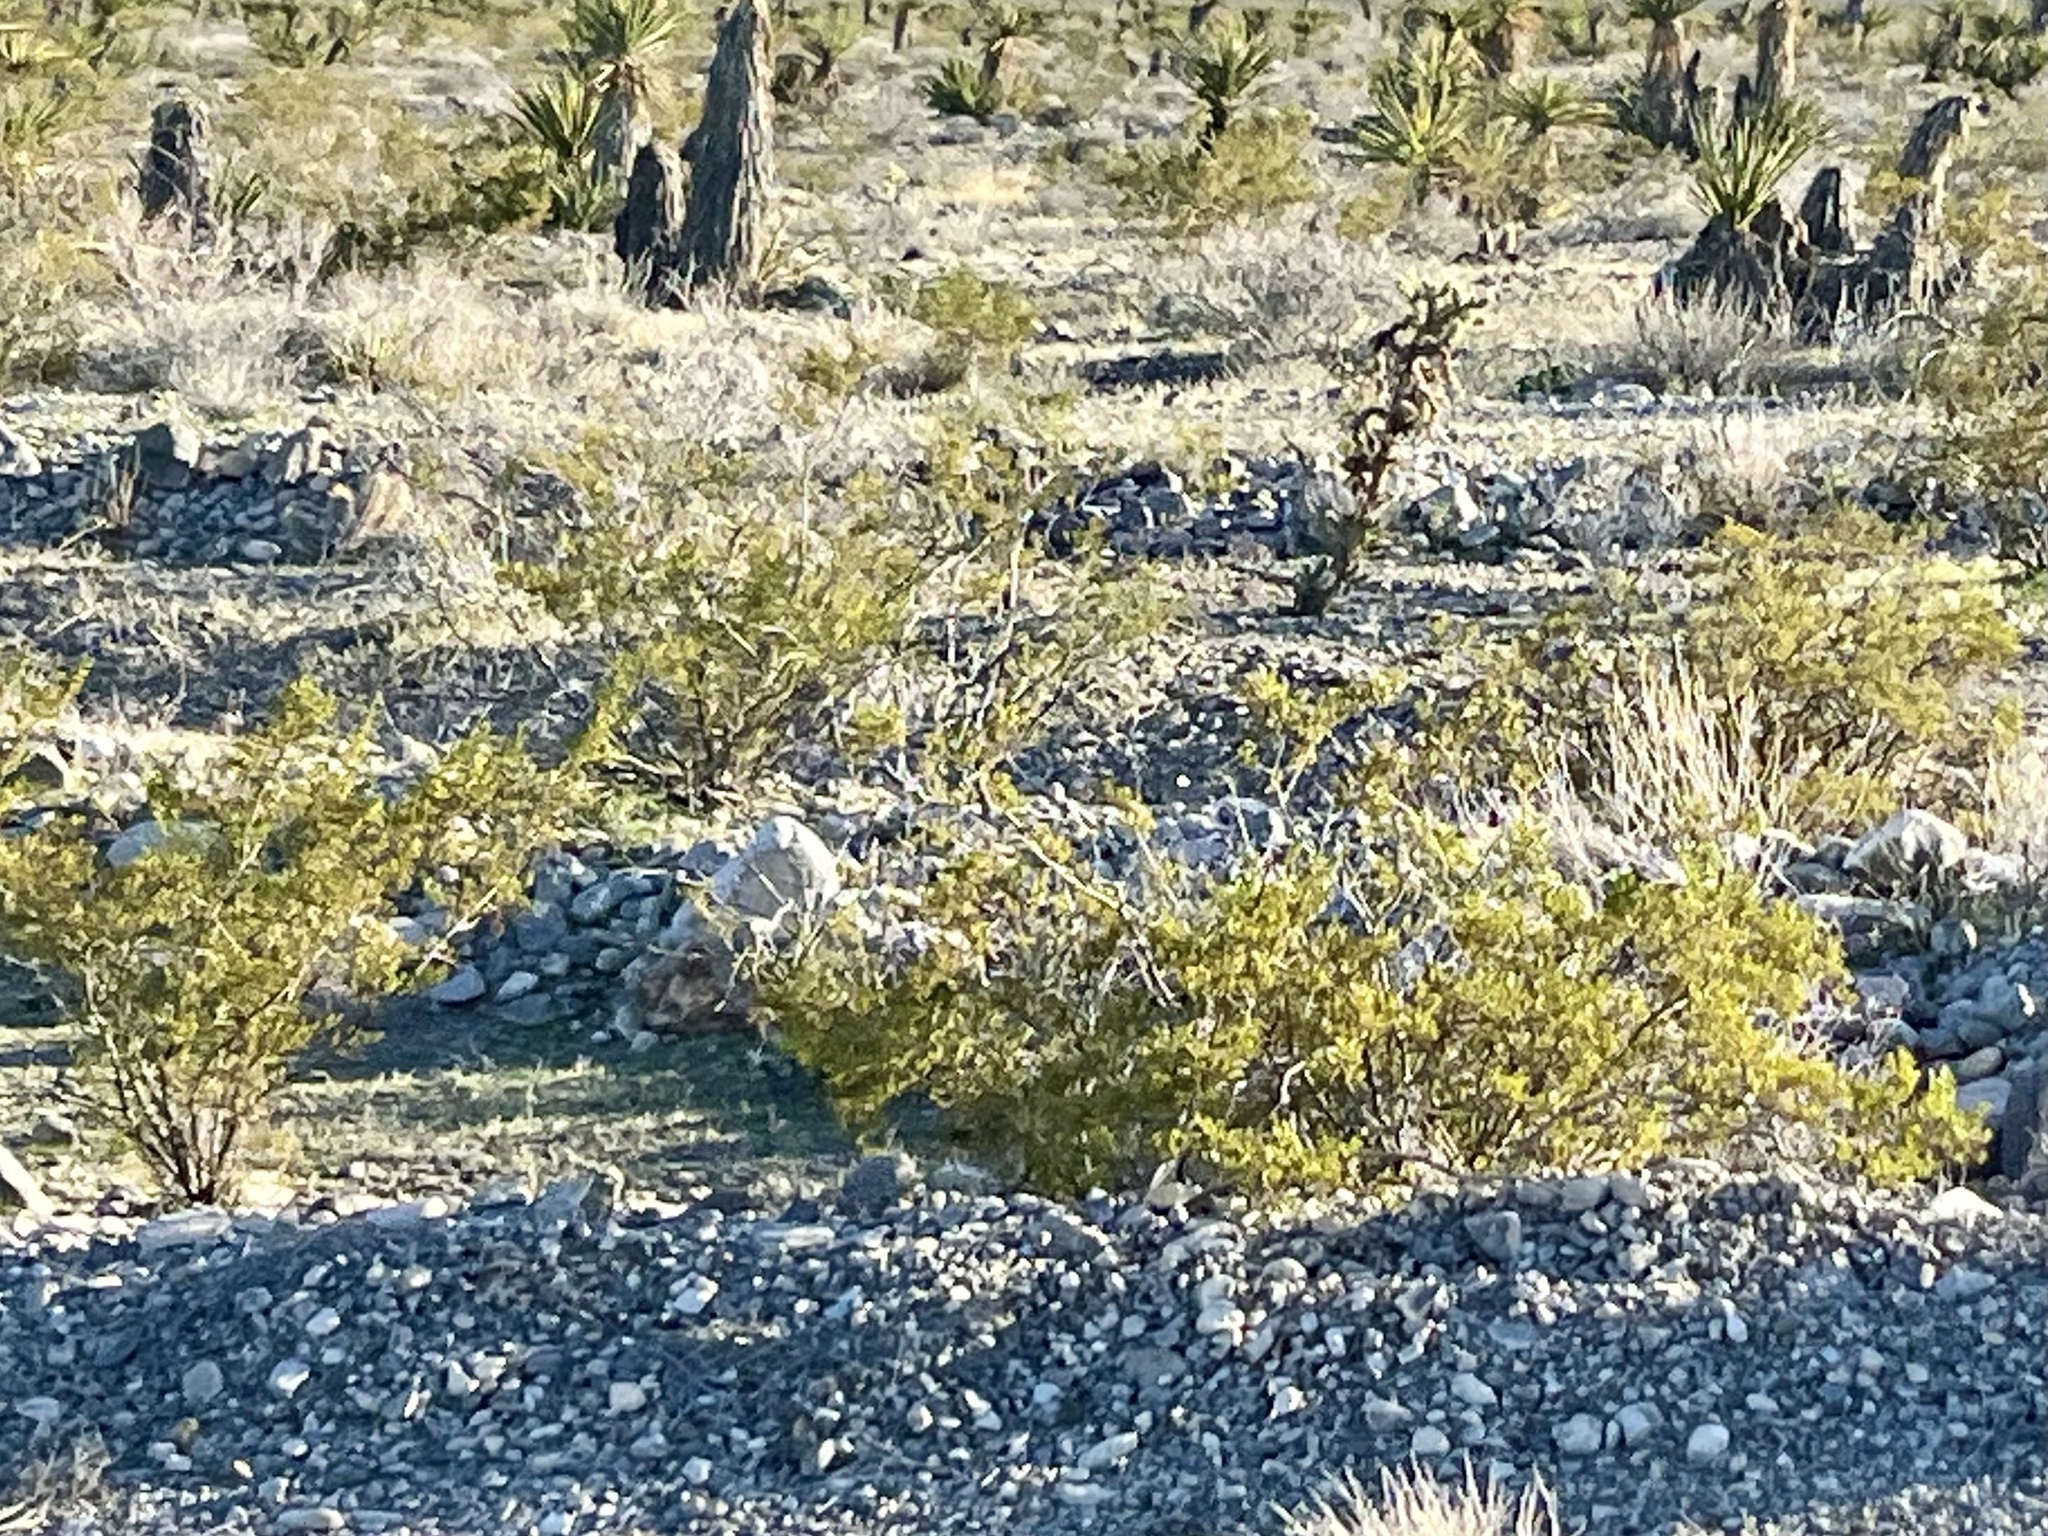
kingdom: Plantae
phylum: Tracheophyta
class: Magnoliopsida
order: Zygophyllales
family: Zygophyllaceae
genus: Larrea
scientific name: Larrea tridentata
